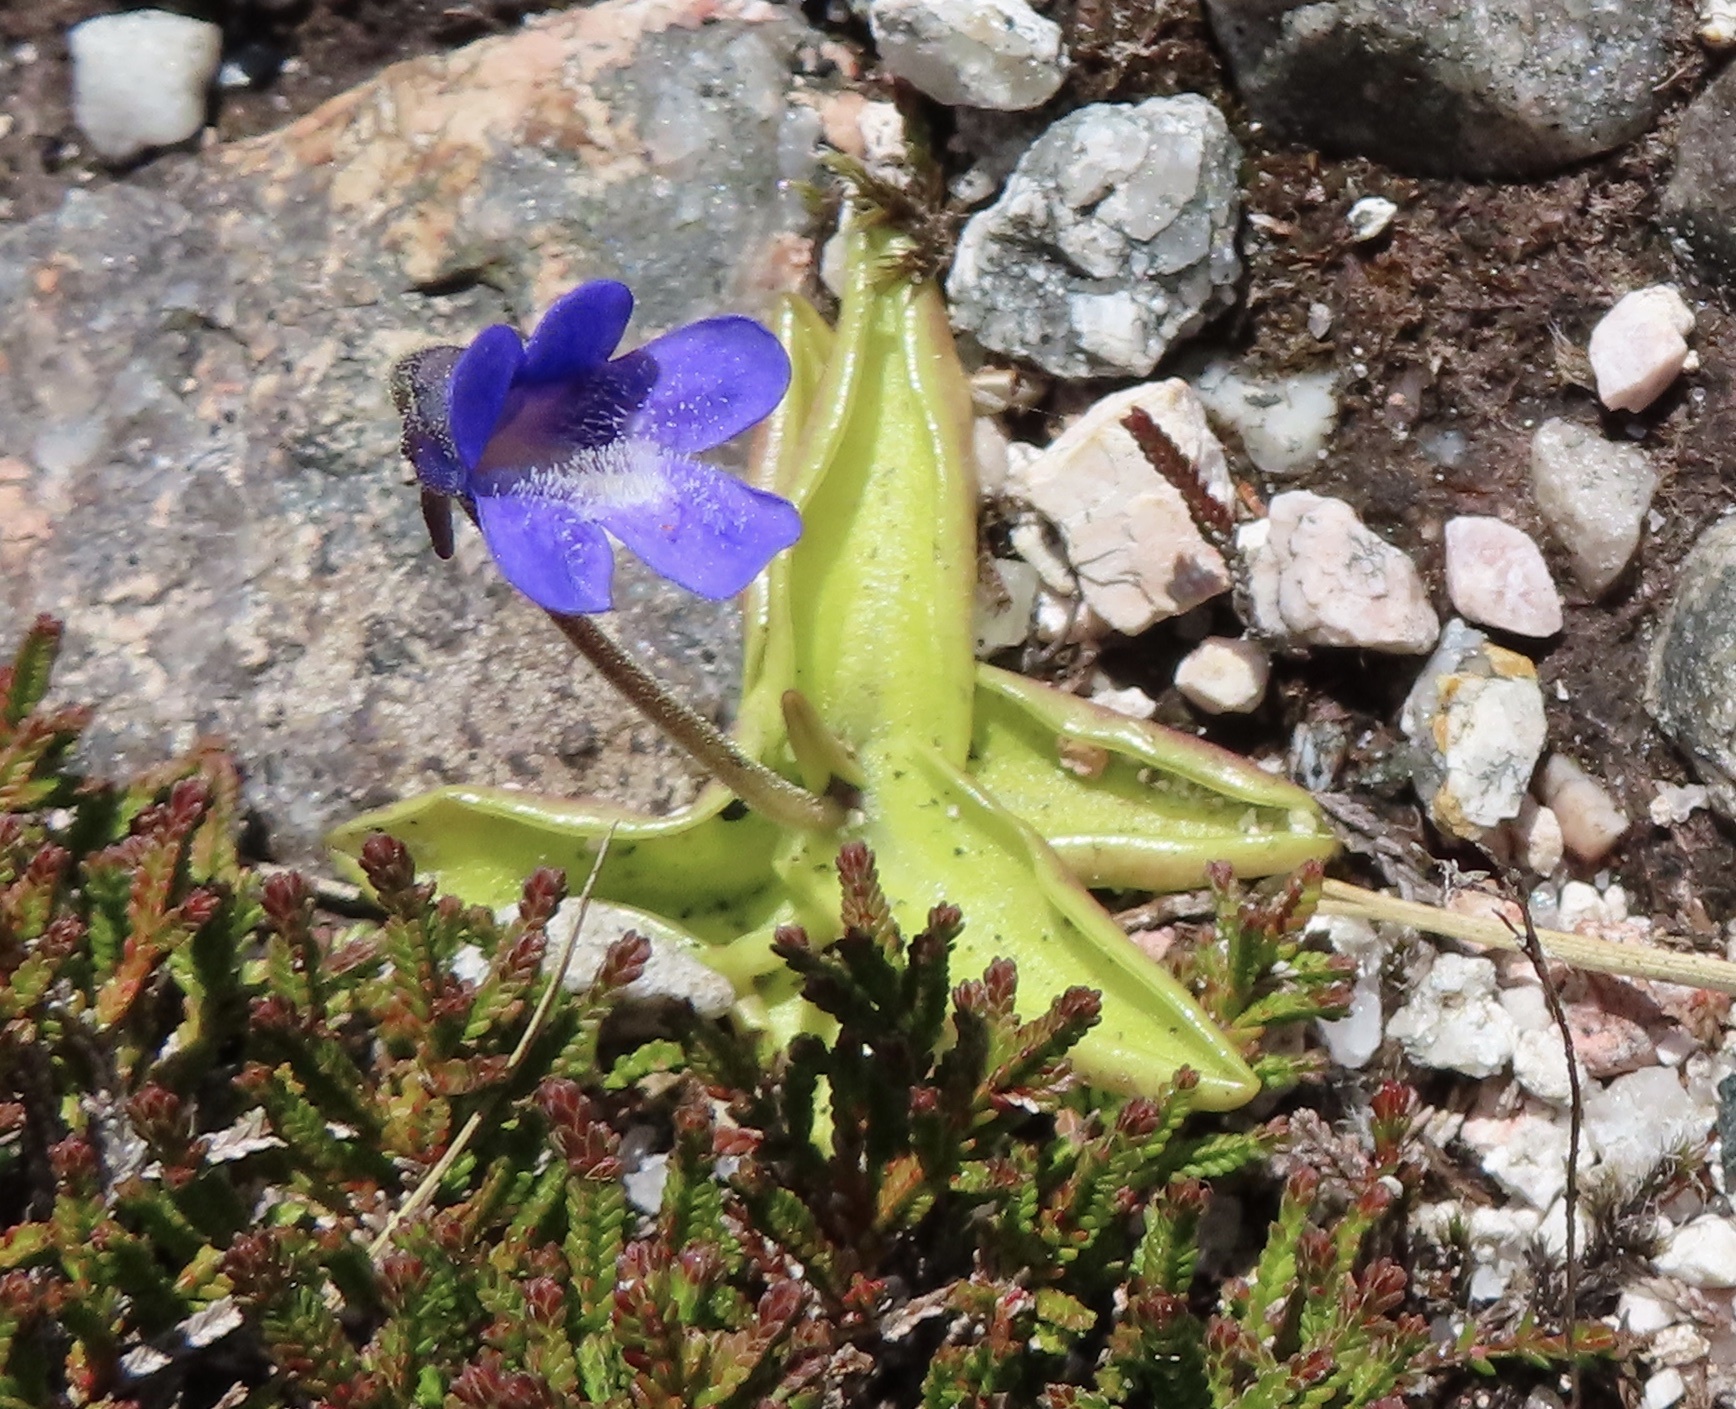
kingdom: Plantae
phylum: Tracheophyta
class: Magnoliopsida
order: Lamiales
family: Lentibulariaceae
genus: Pinguicula
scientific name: Pinguicula vulgaris
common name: Common butterwort
